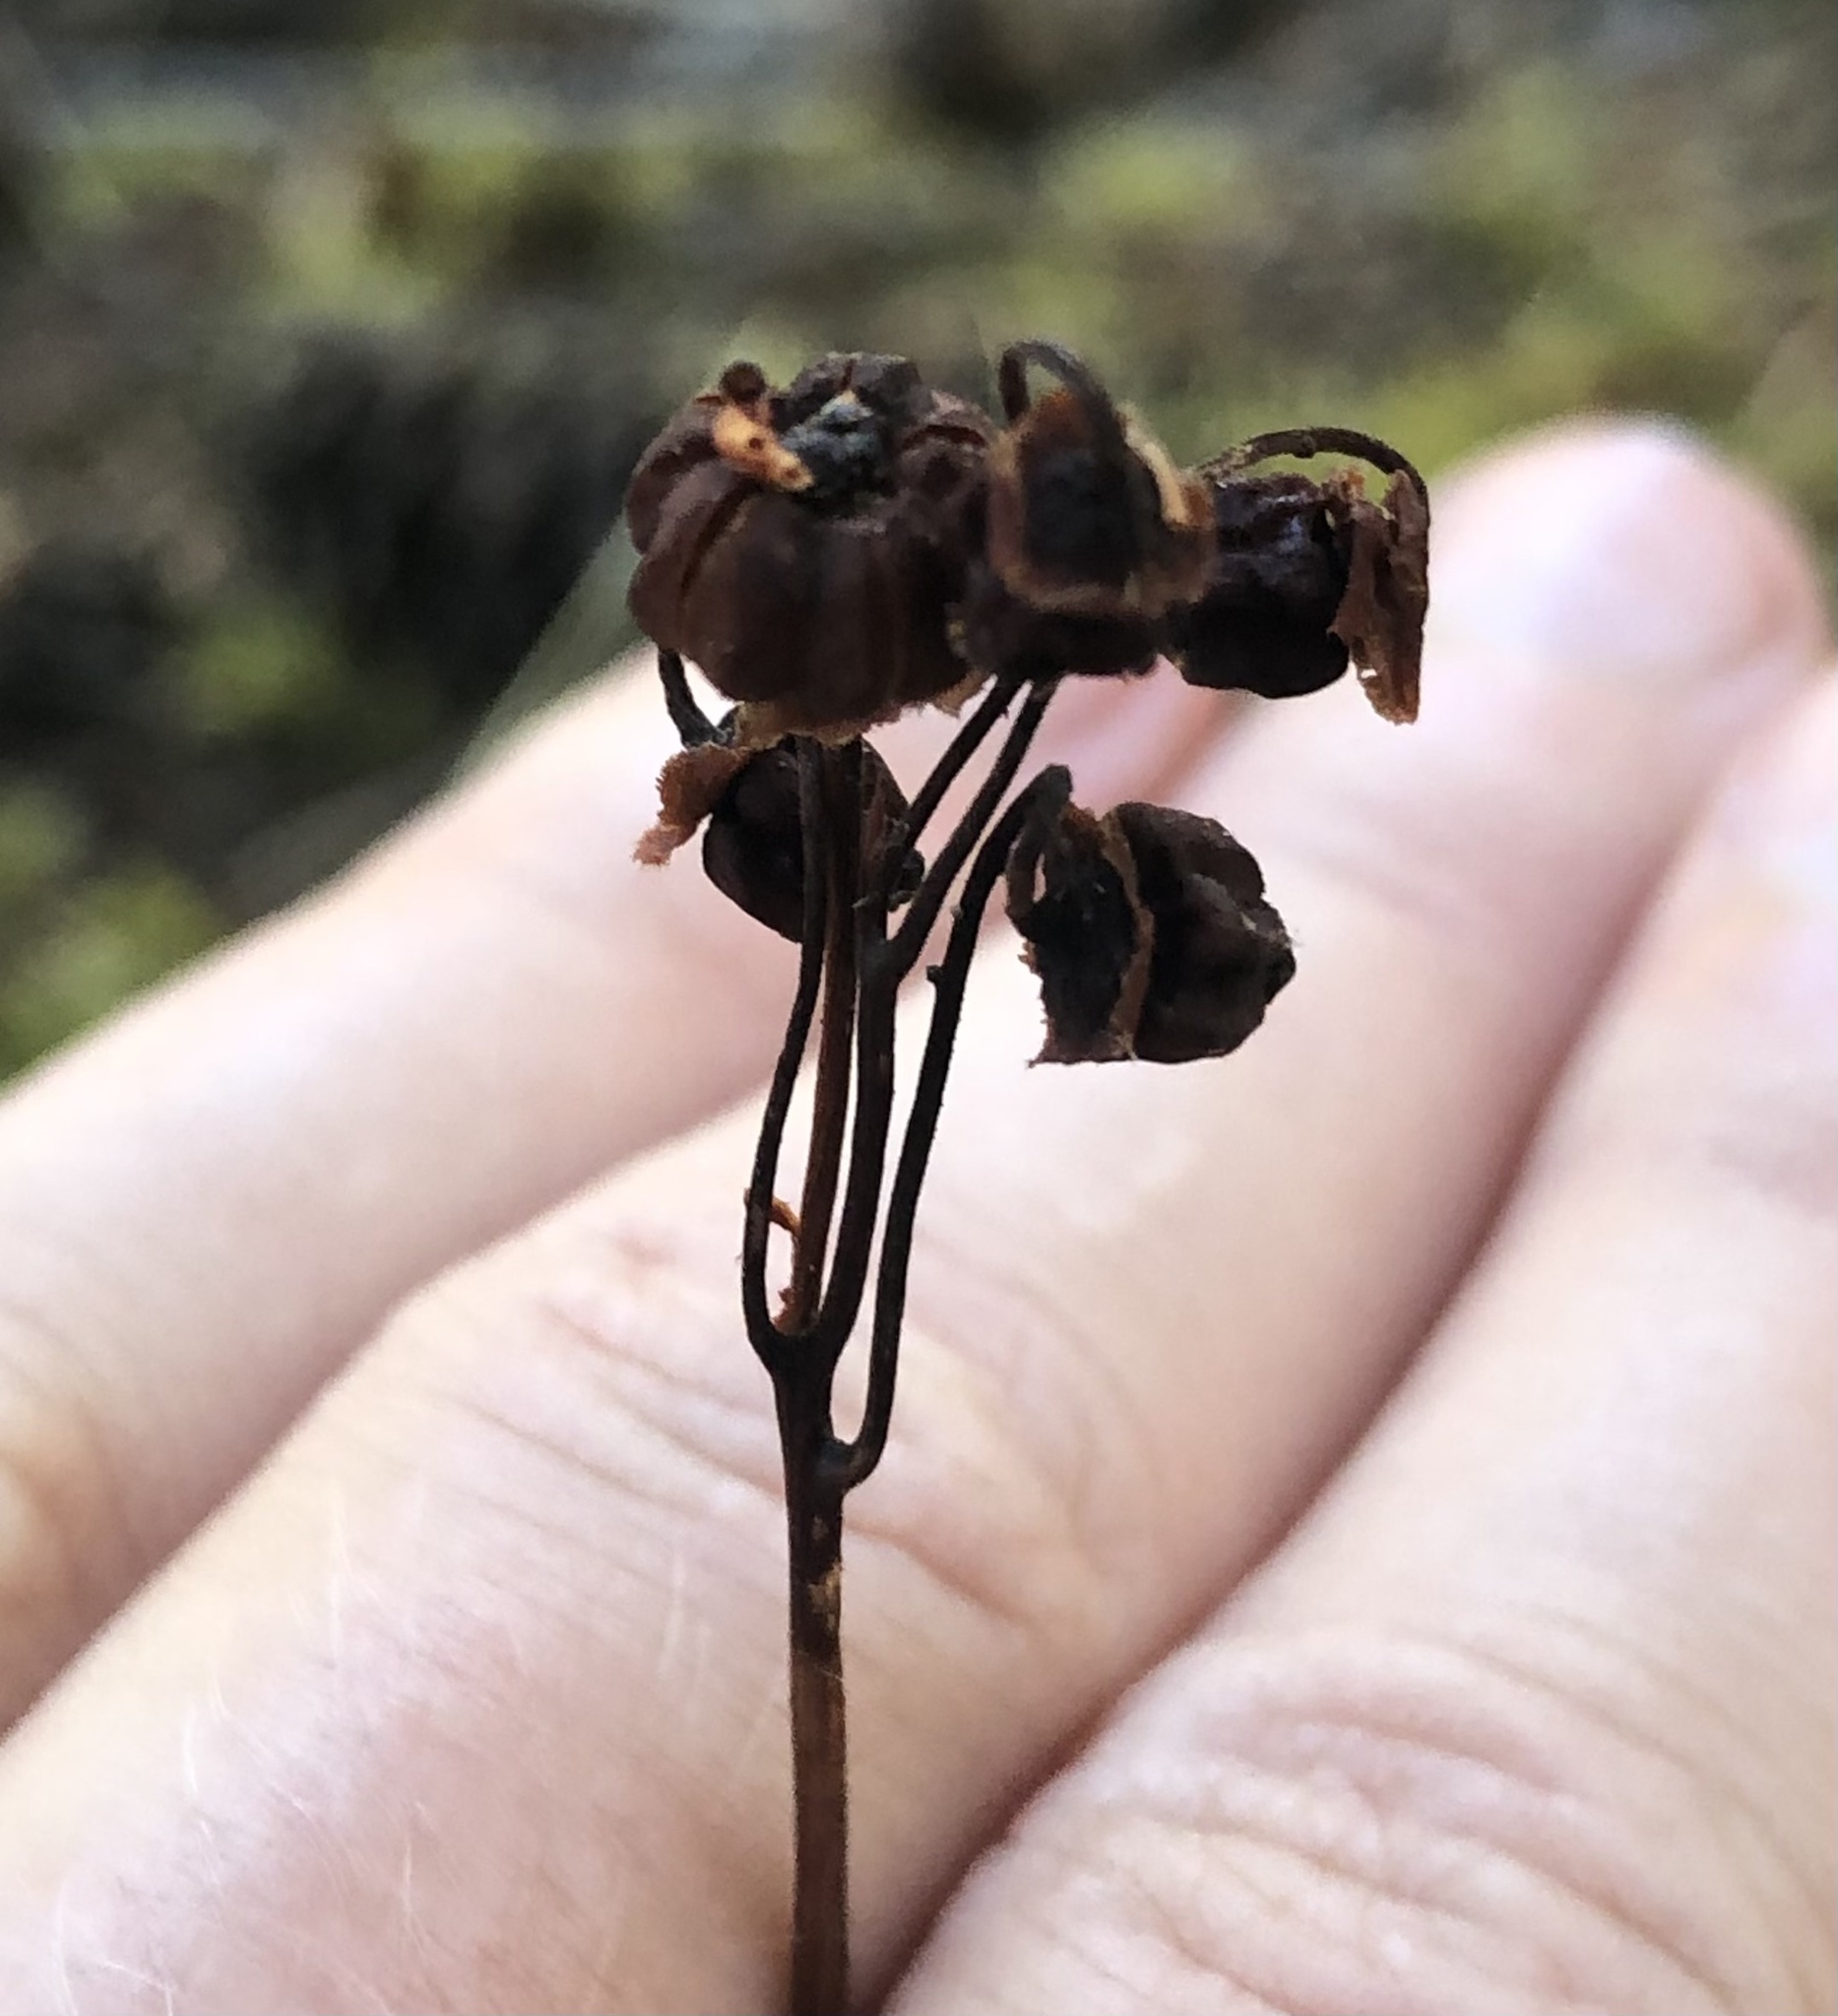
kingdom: Plantae
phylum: Tracheophyta
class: Magnoliopsida
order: Ericales
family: Ericaceae
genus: Chimaphila
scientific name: Chimaphila umbellata
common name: Pipsissewa
